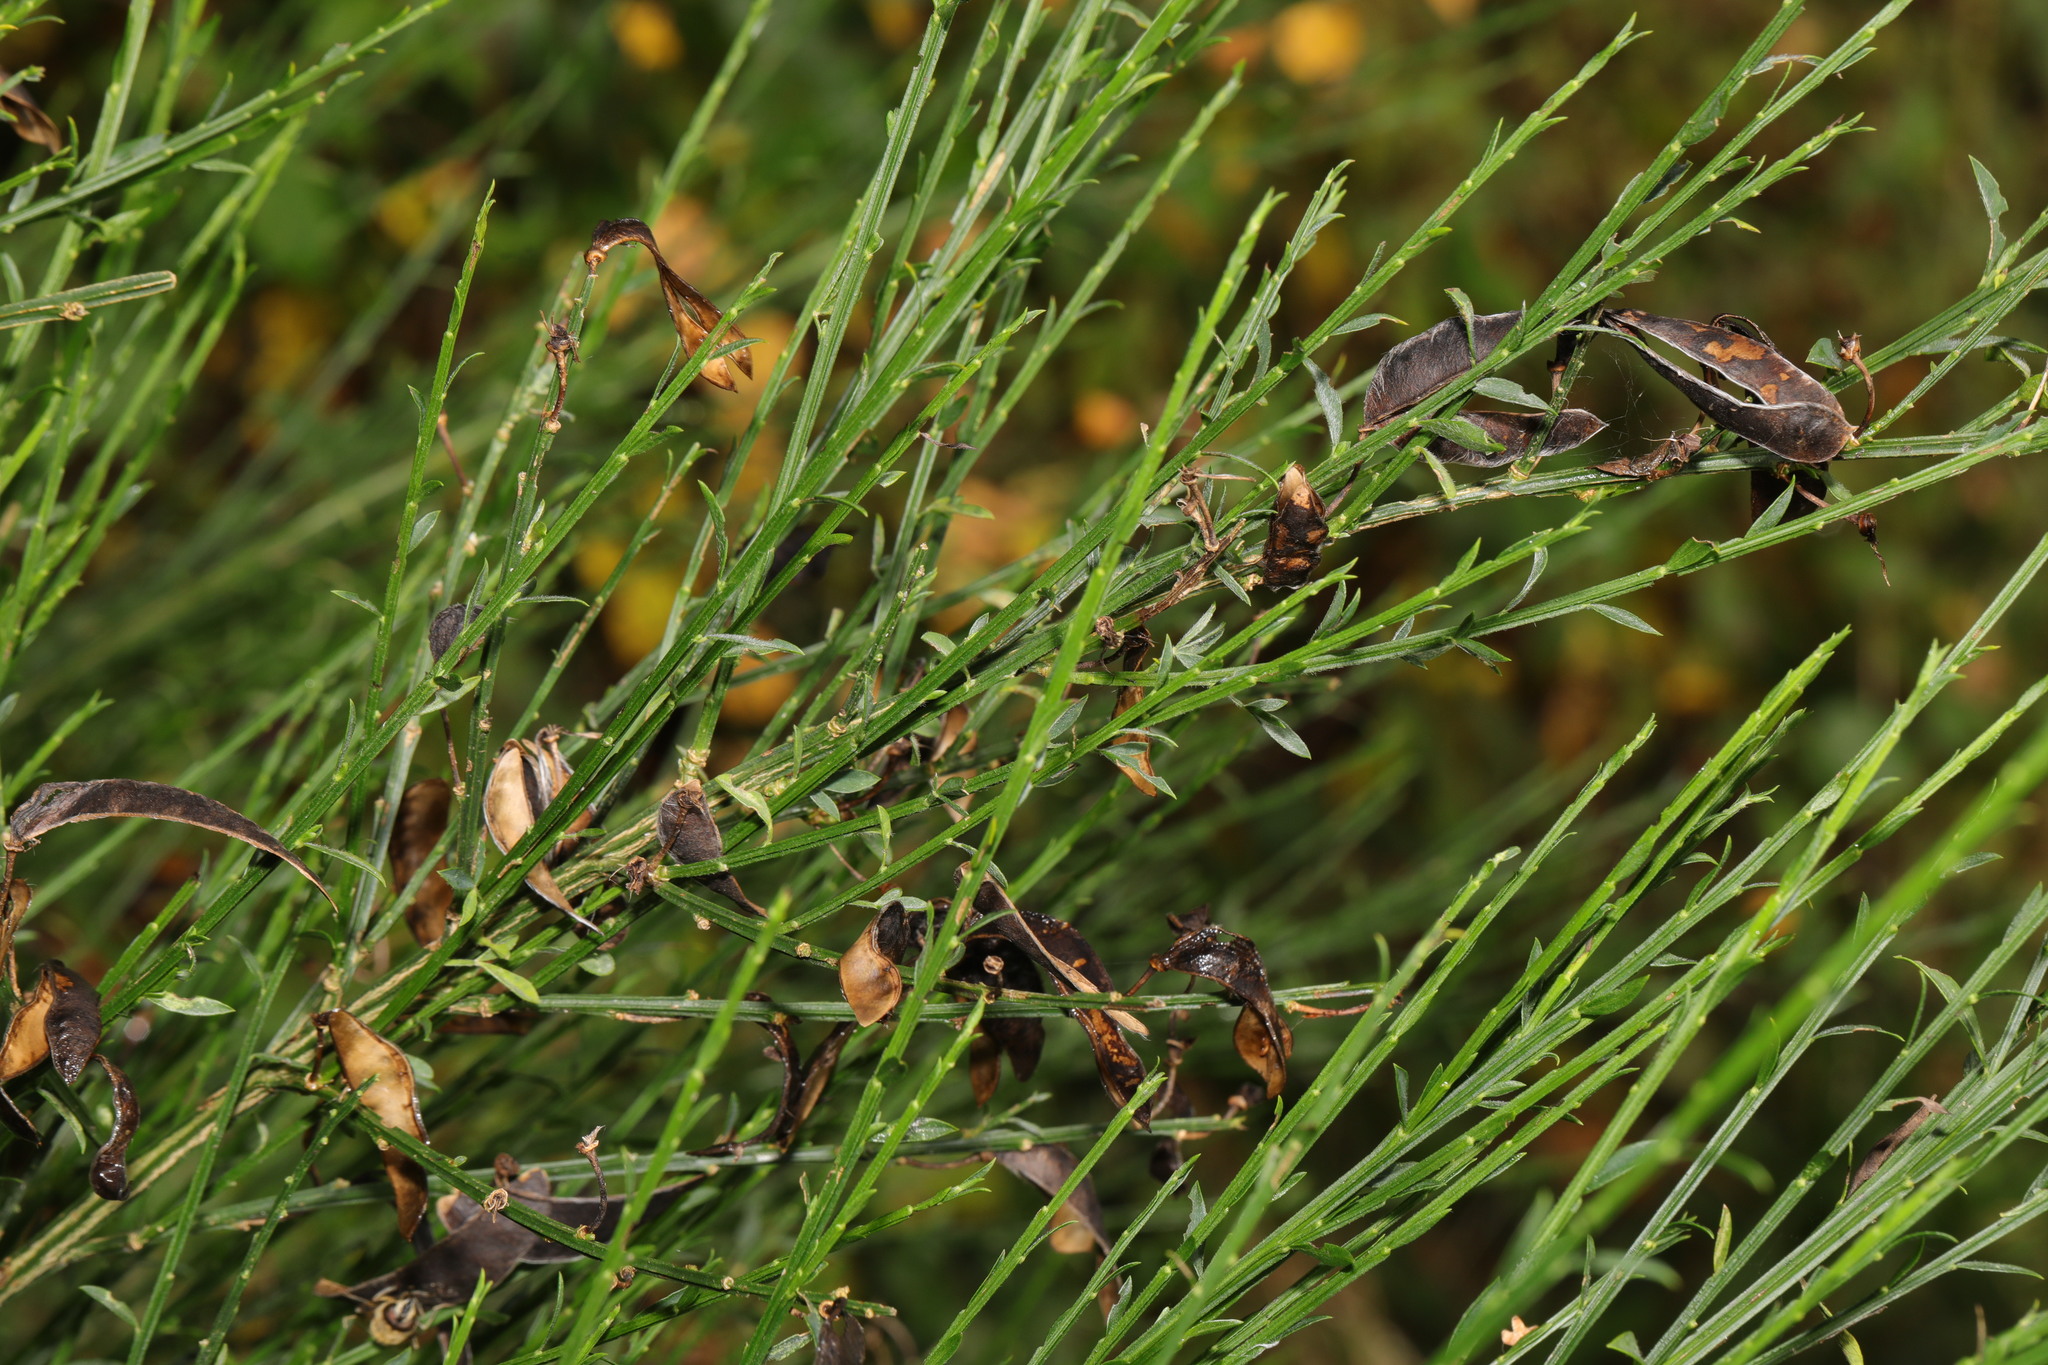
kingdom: Plantae
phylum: Tracheophyta
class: Magnoliopsida
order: Fabales
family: Fabaceae
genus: Cytisus
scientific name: Cytisus scoparius
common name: Scotch broom
